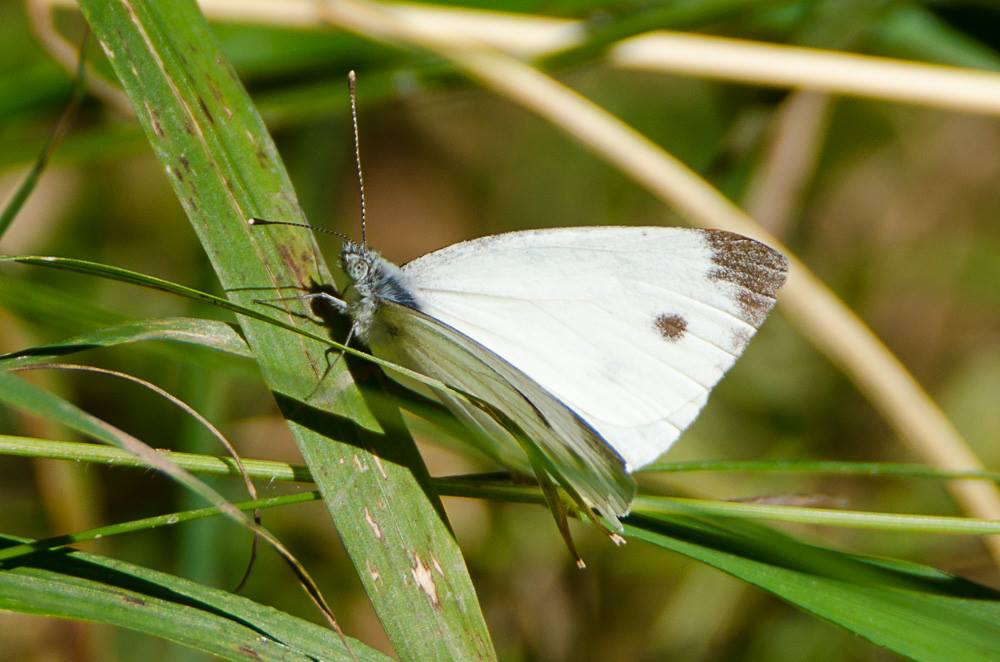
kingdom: Animalia
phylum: Arthropoda
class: Insecta
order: Lepidoptera
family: Pieridae
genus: Pieris
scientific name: Pieris rapae
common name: Small white
